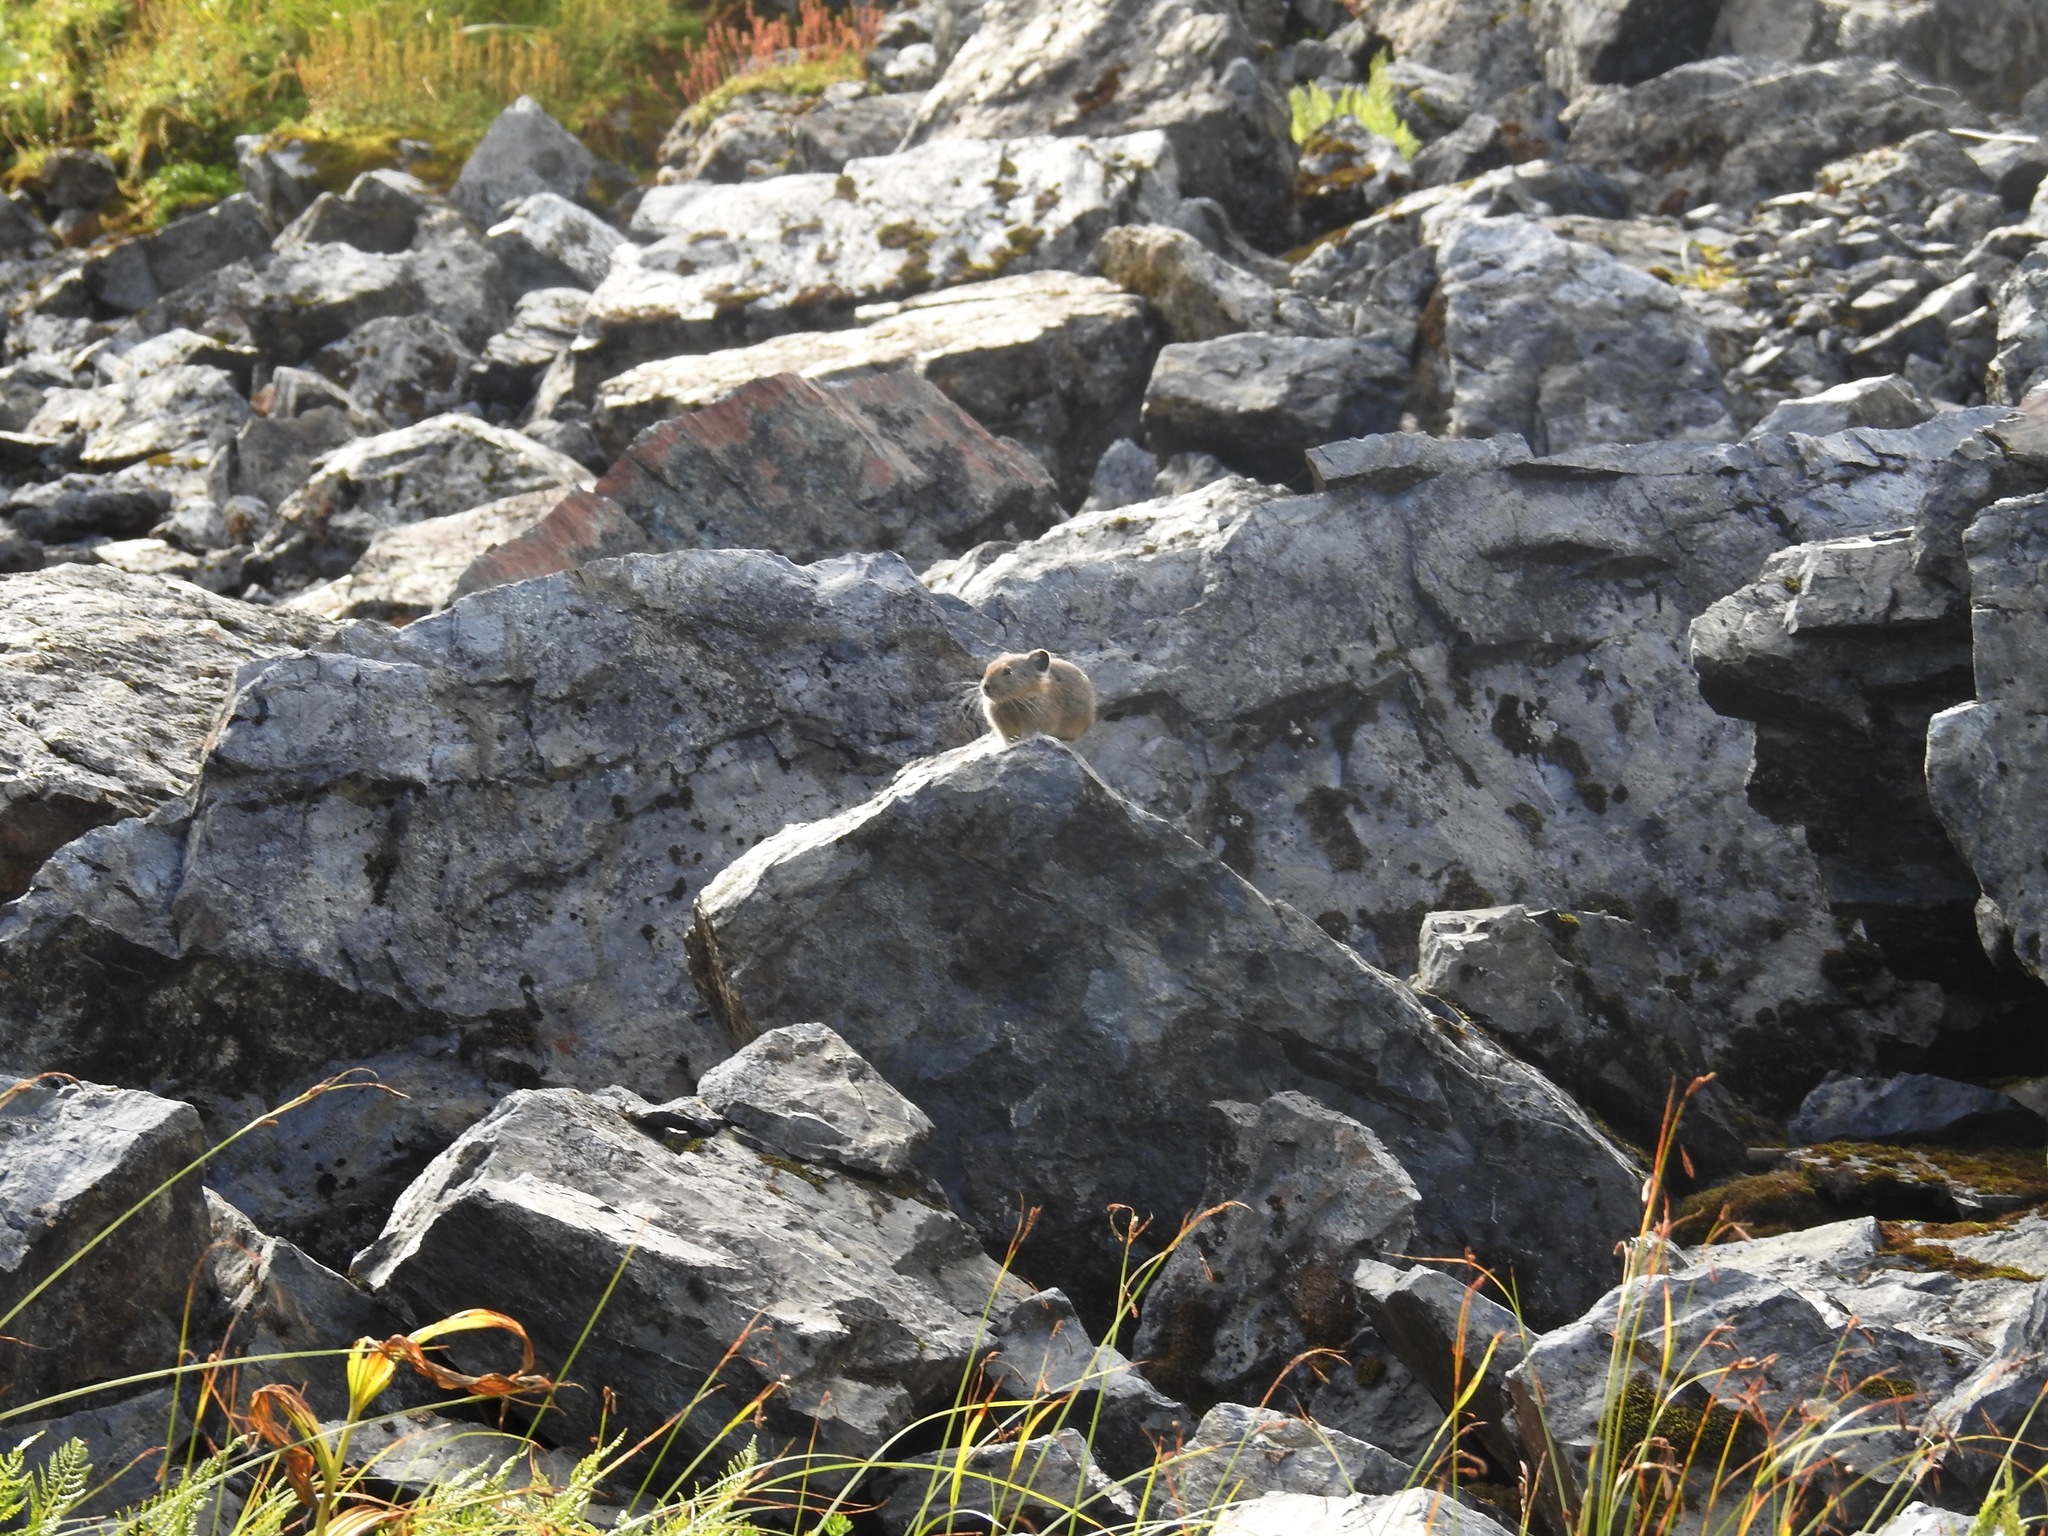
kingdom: Animalia
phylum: Chordata
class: Mammalia
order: Lagomorpha
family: Ochotonidae
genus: Ochotona
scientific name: Ochotona princeps
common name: American pika
